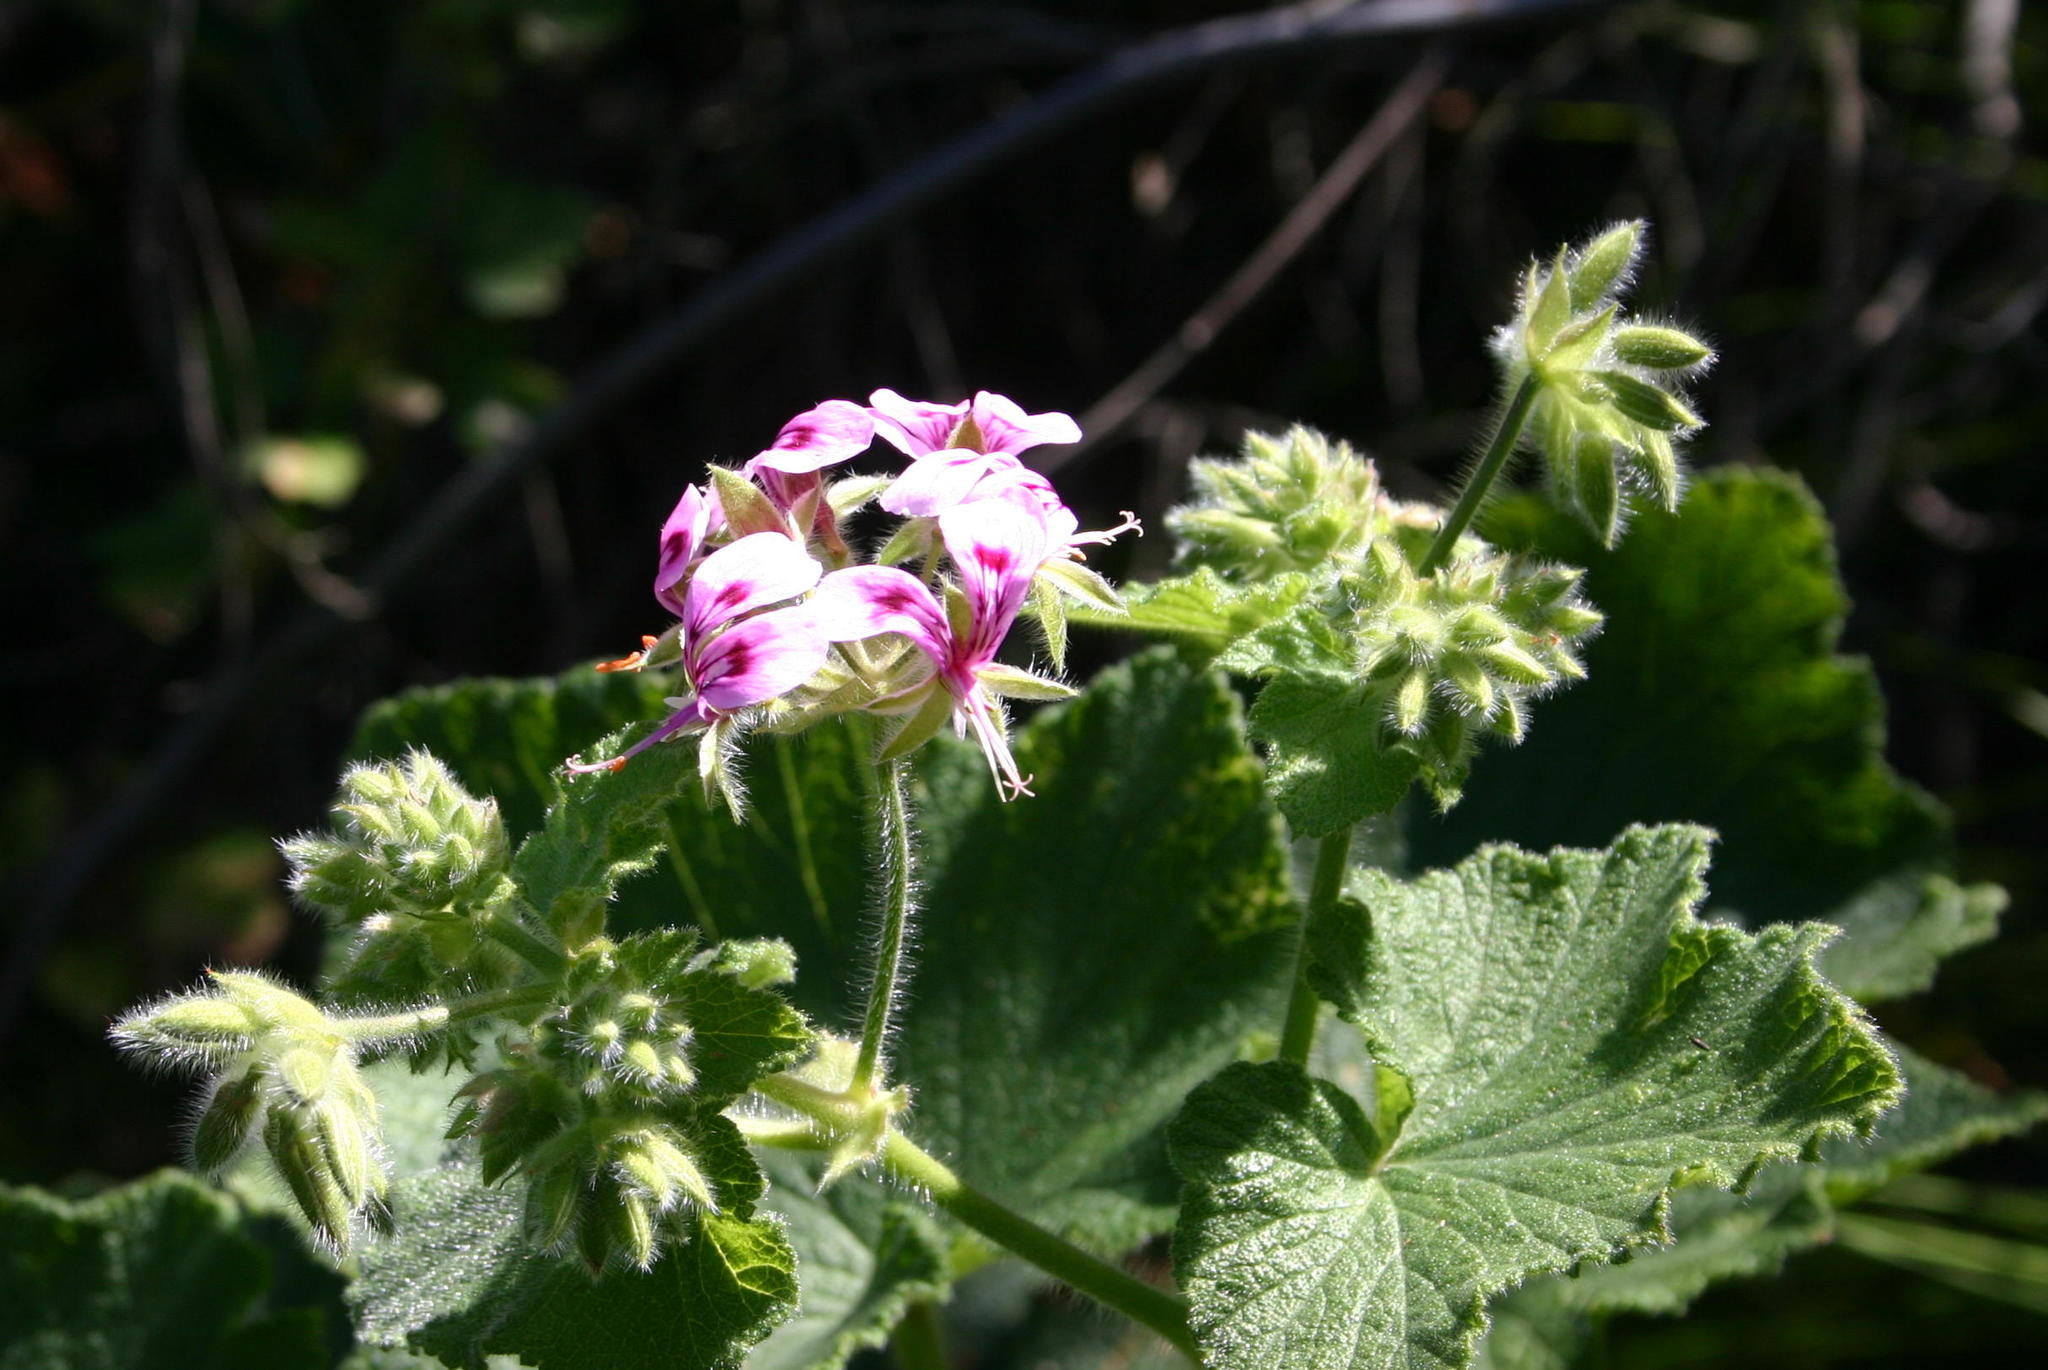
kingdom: Plantae
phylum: Tracheophyta
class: Magnoliopsida
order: Geraniales
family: Geraniaceae
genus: Pelargonium
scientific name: Pelargonium papilionaceum
